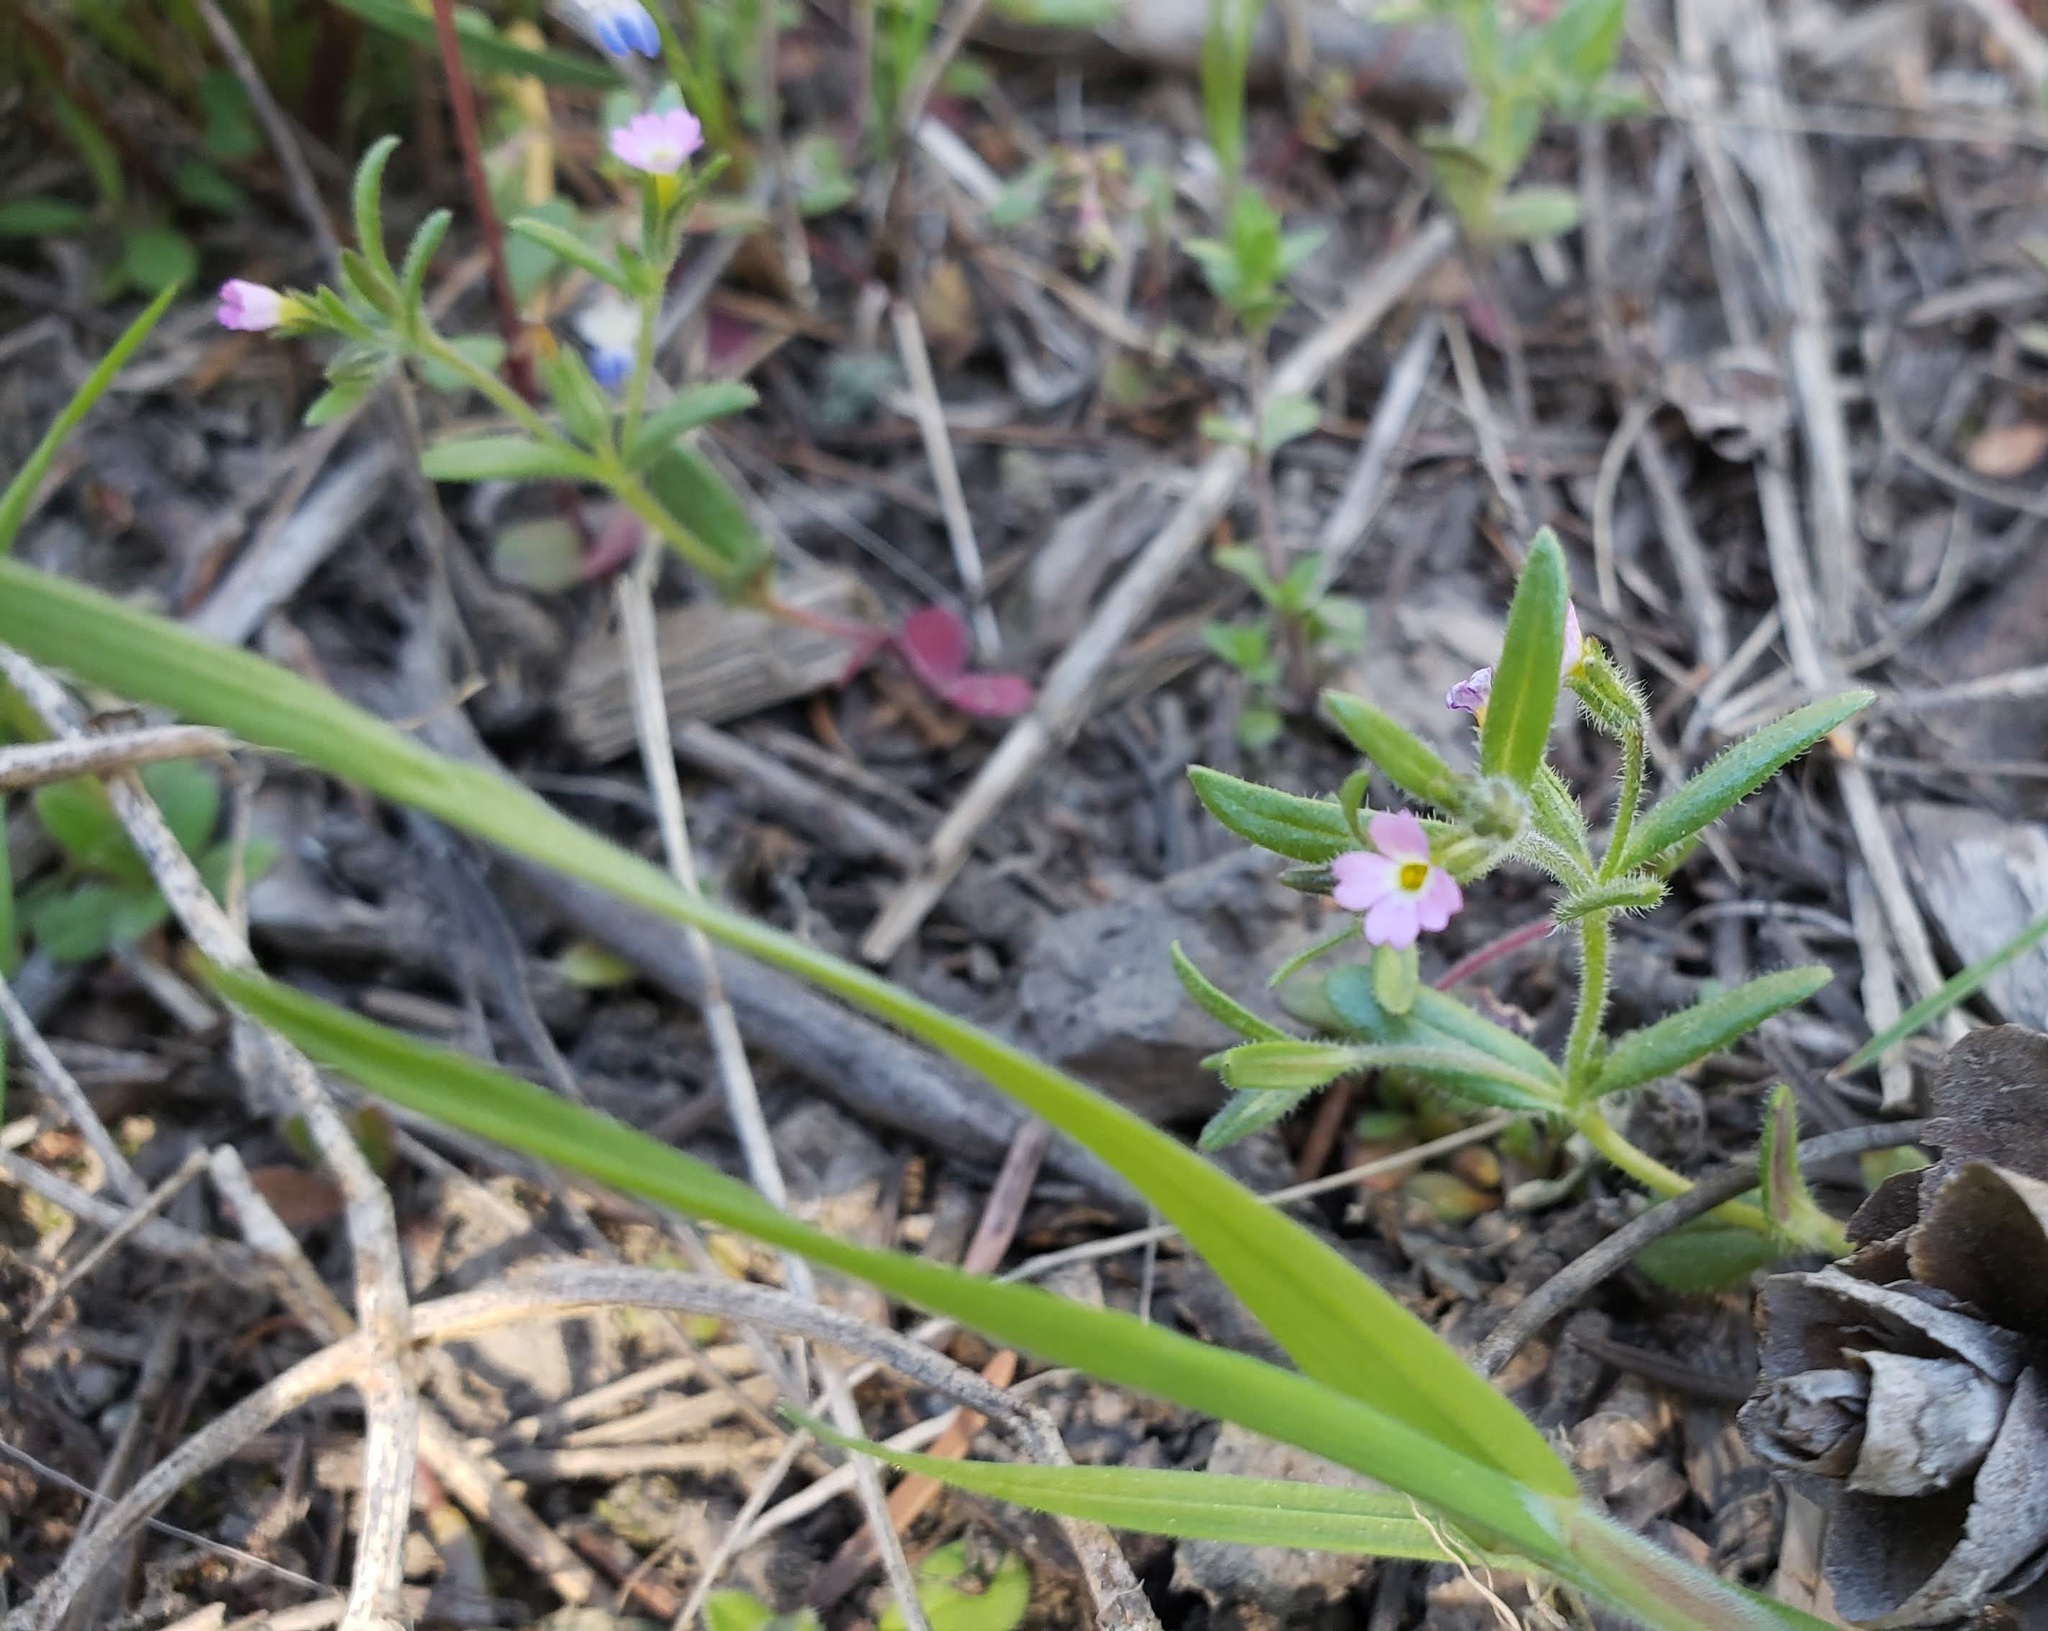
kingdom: Plantae
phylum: Tracheophyta
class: Magnoliopsida
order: Ericales
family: Polemoniaceae
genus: Phlox
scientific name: Phlox gracilis
